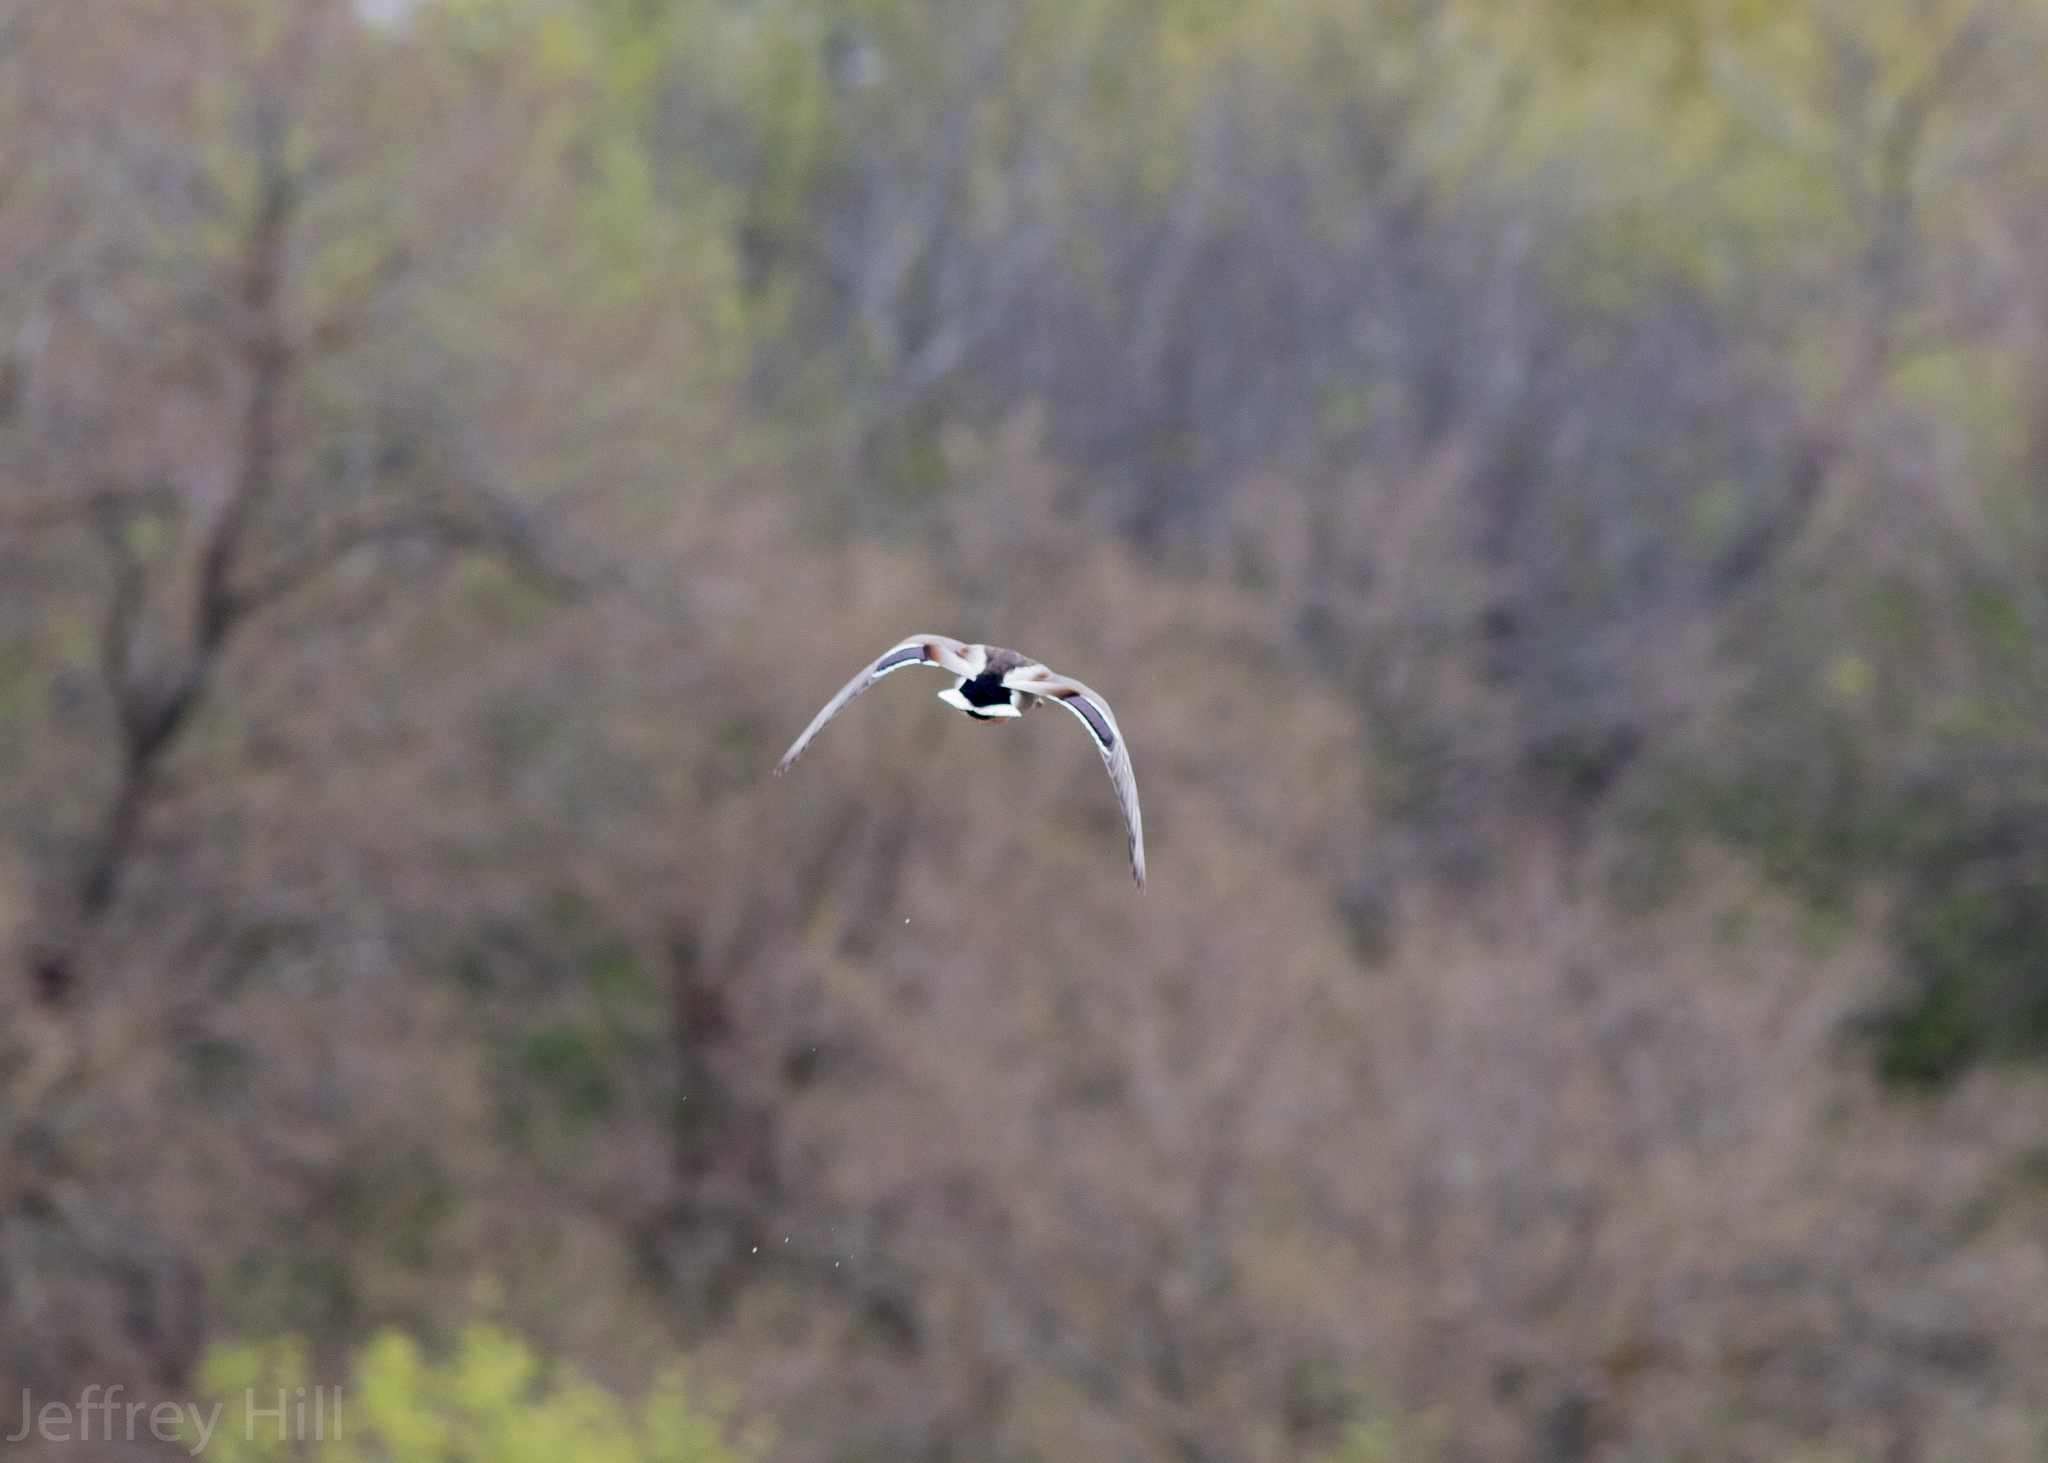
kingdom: Animalia
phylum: Chordata
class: Aves
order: Anseriformes
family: Anatidae
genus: Anas
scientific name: Anas platyrhynchos
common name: Mallard
